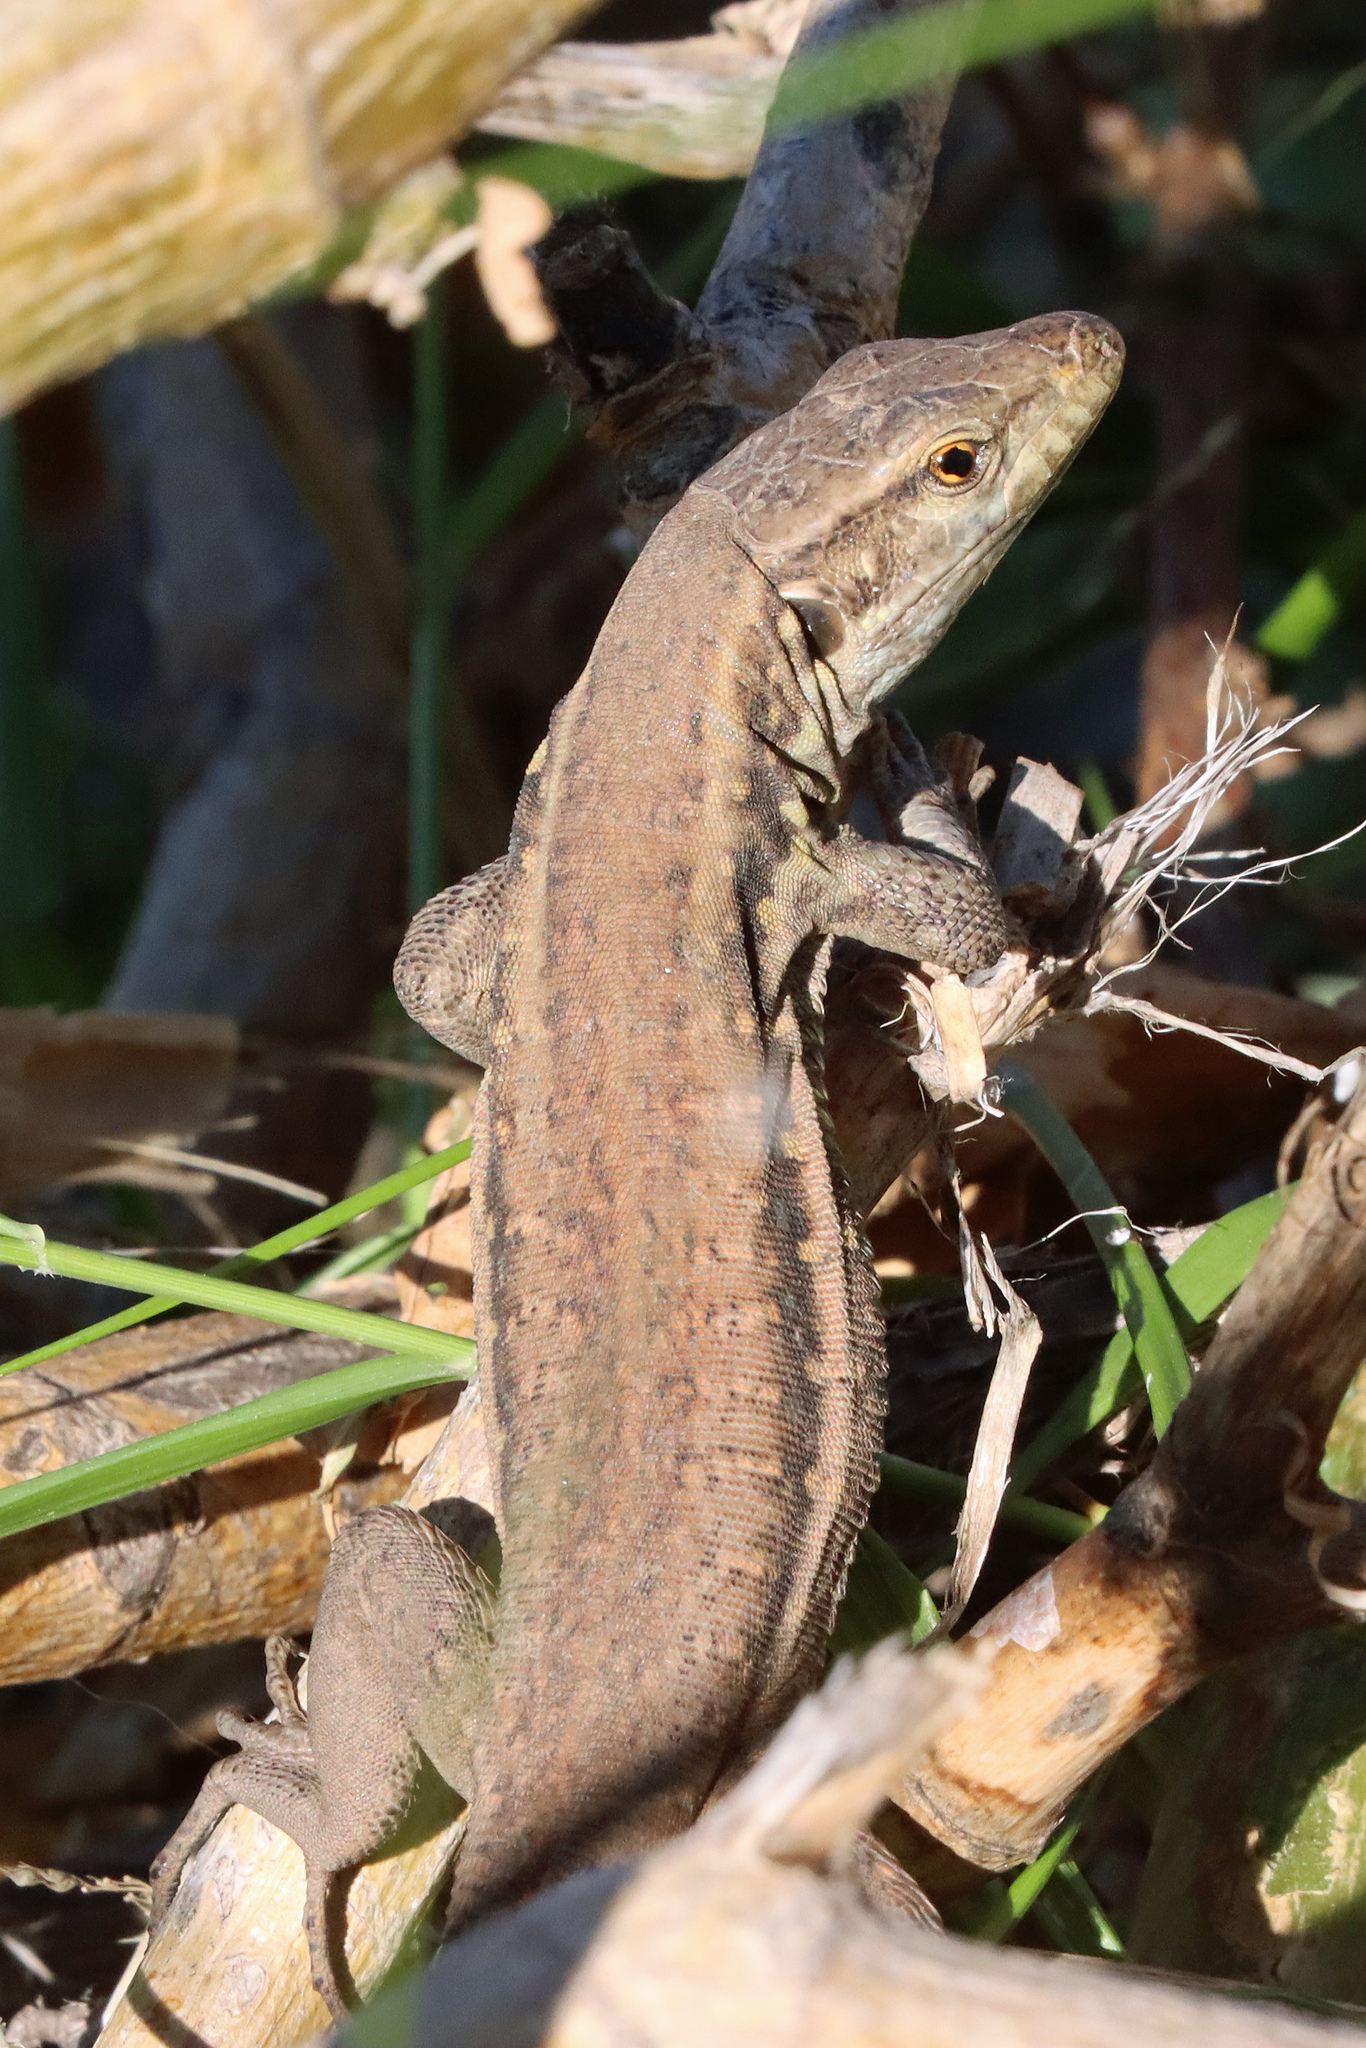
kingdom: Animalia
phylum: Chordata
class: Squamata
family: Lacertidae
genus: Gallotia
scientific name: Gallotia galloti
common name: Gallot's lizard
